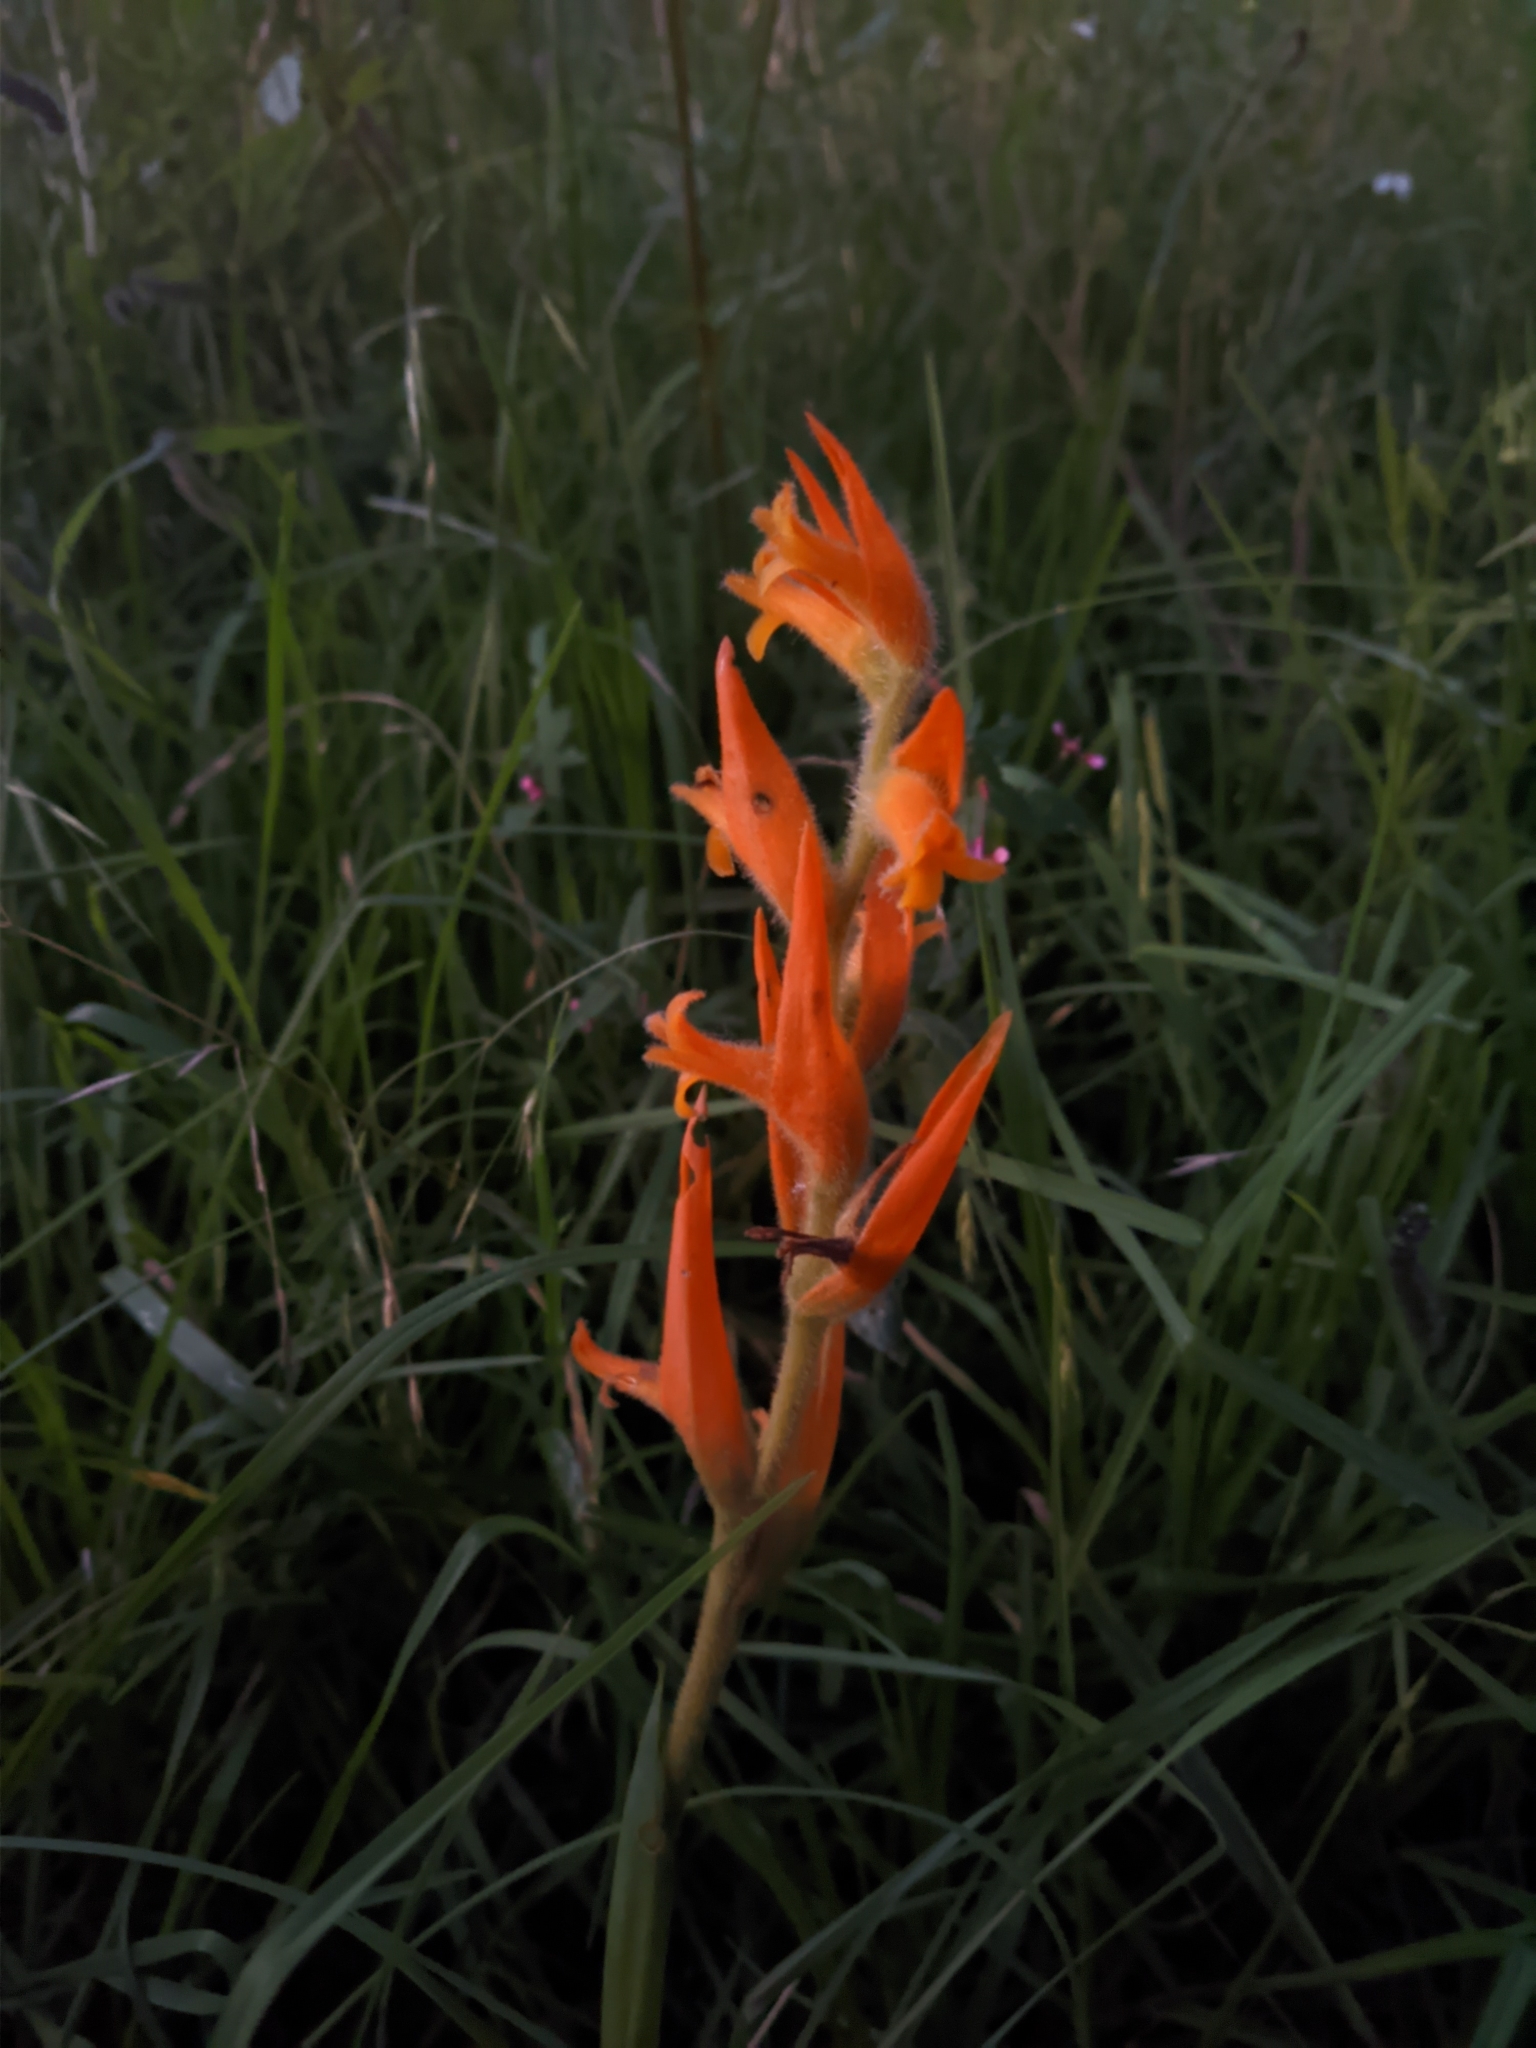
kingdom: Plantae
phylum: Tracheophyta
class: Liliopsida
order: Asparagales
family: Orchidaceae
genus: Dichromanthus
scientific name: Dichromanthus aurantiacus
